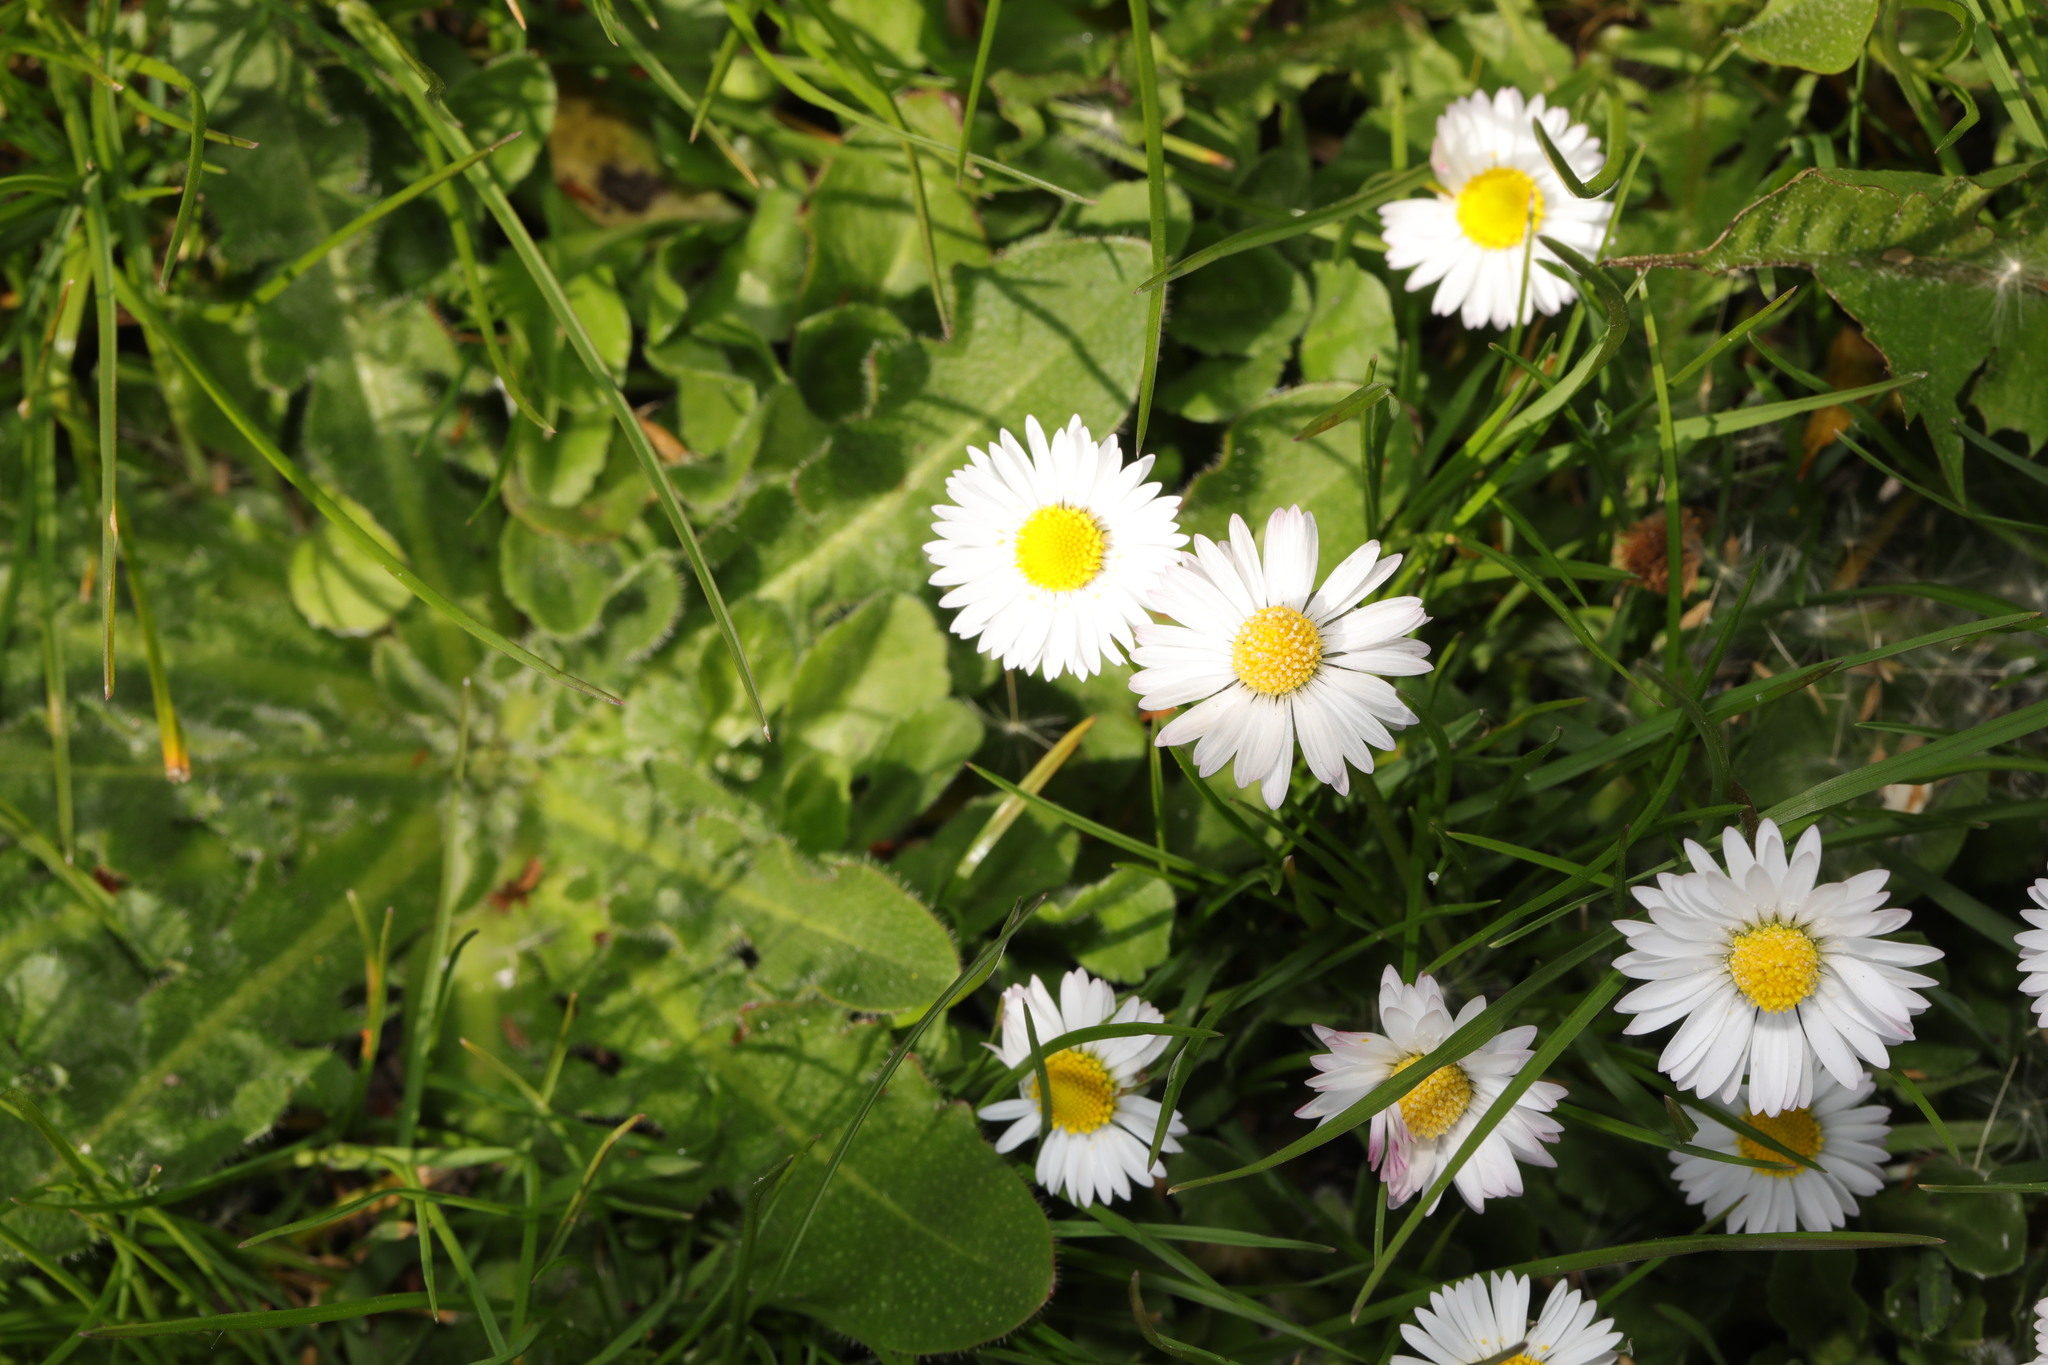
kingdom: Plantae
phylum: Tracheophyta
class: Magnoliopsida
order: Asterales
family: Asteraceae
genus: Bellis
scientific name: Bellis perennis
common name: Lawndaisy
